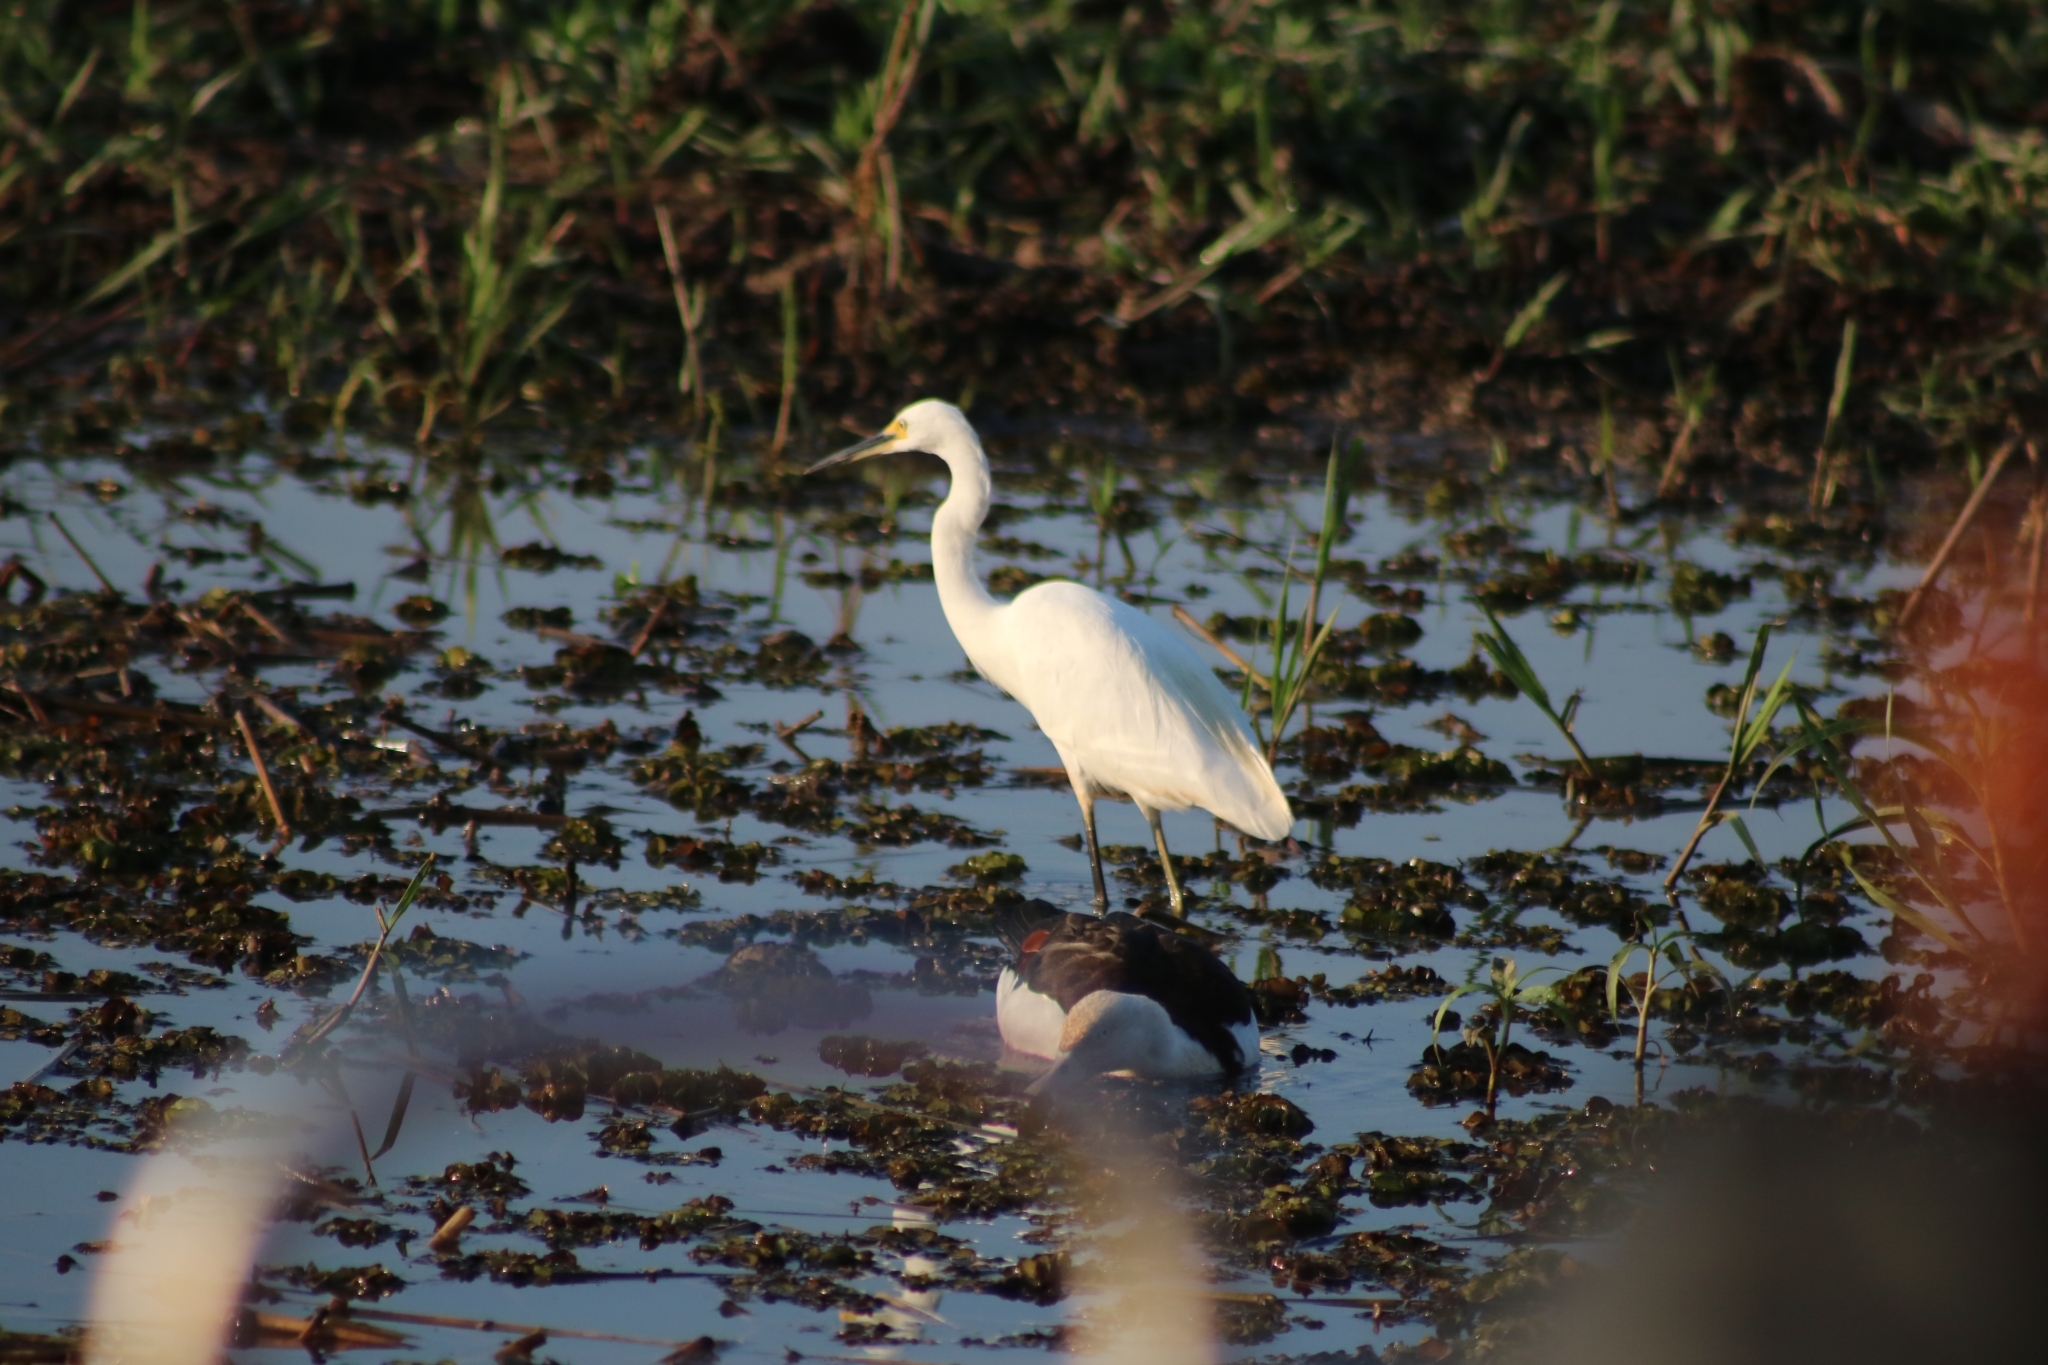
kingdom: Animalia
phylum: Chordata
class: Aves
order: Pelecaniformes
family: Ardeidae
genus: Egretta
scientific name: Egretta garzetta
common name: Little egret
